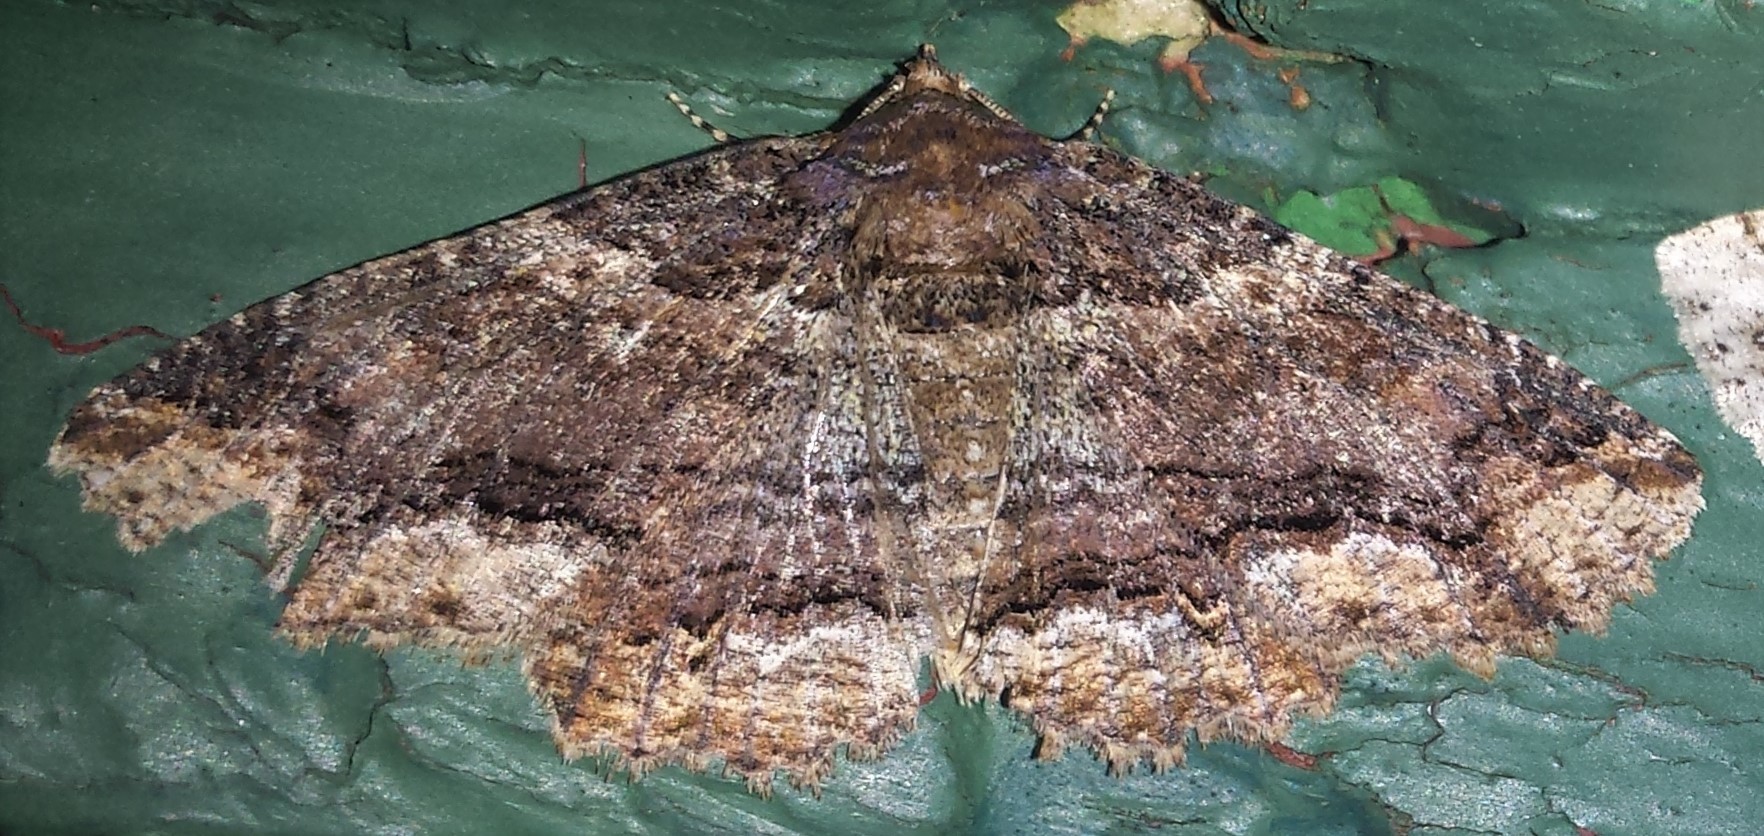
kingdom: Animalia
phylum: Arthropoda
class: Insecta
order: Lepidoptera
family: Erebidae
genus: Zale
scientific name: Zale minerea
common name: Colorful zale moth
